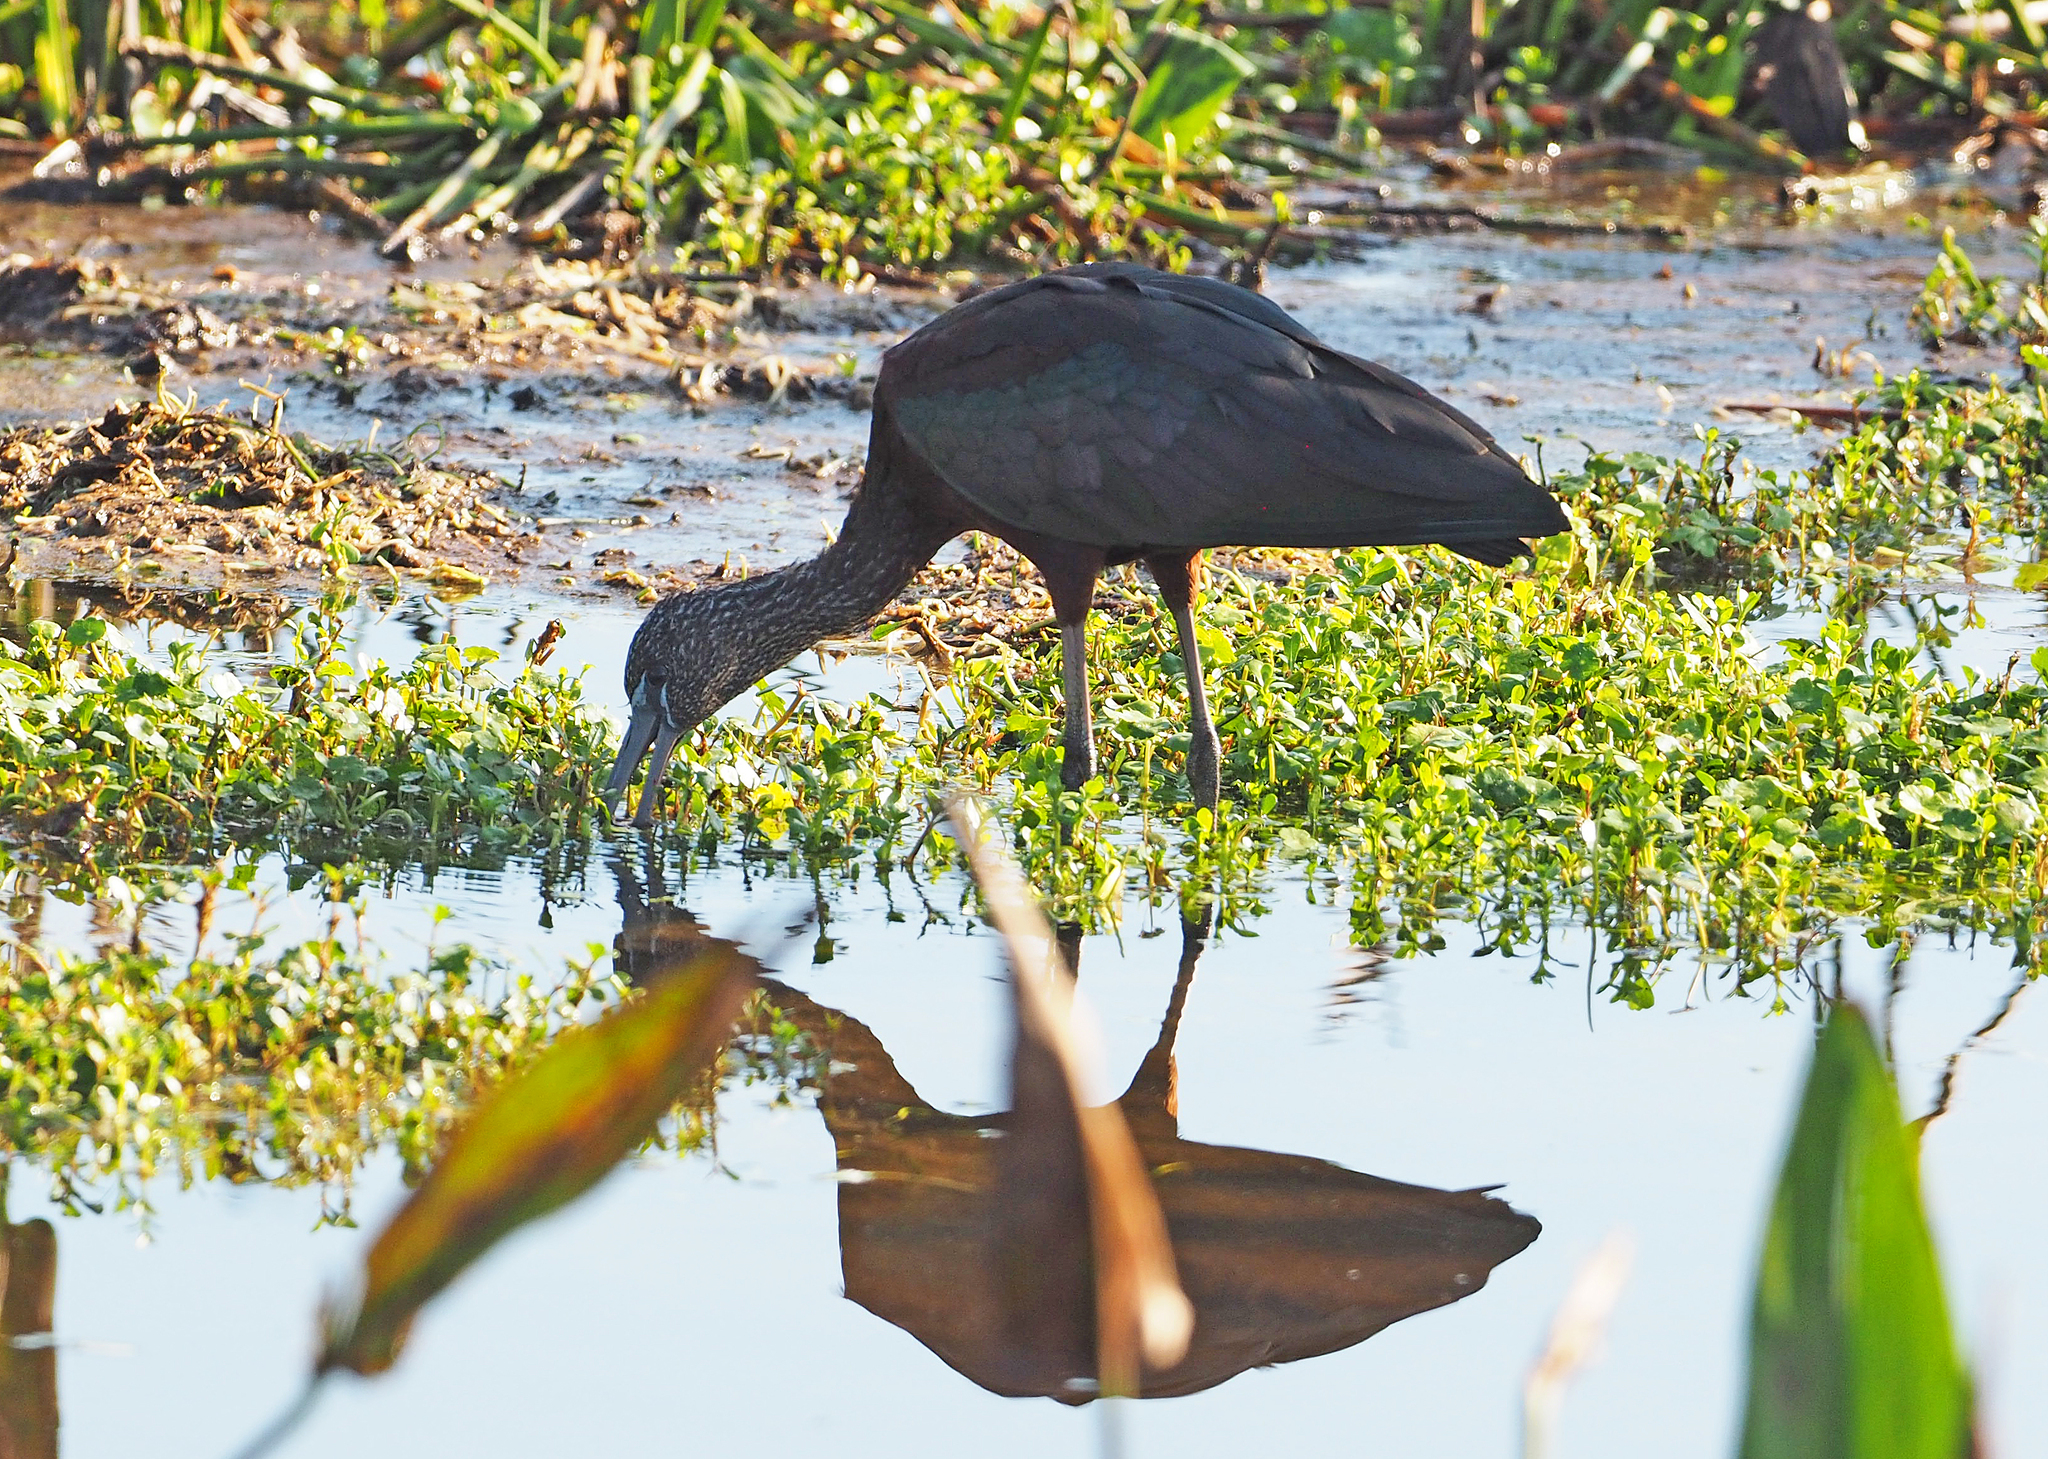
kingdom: Animalia
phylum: Chordata
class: Aves
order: Pelecaniformes
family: Threskiornithidae
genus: Plegadis
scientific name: Plegadis falcinellus
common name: Glossy ibis
